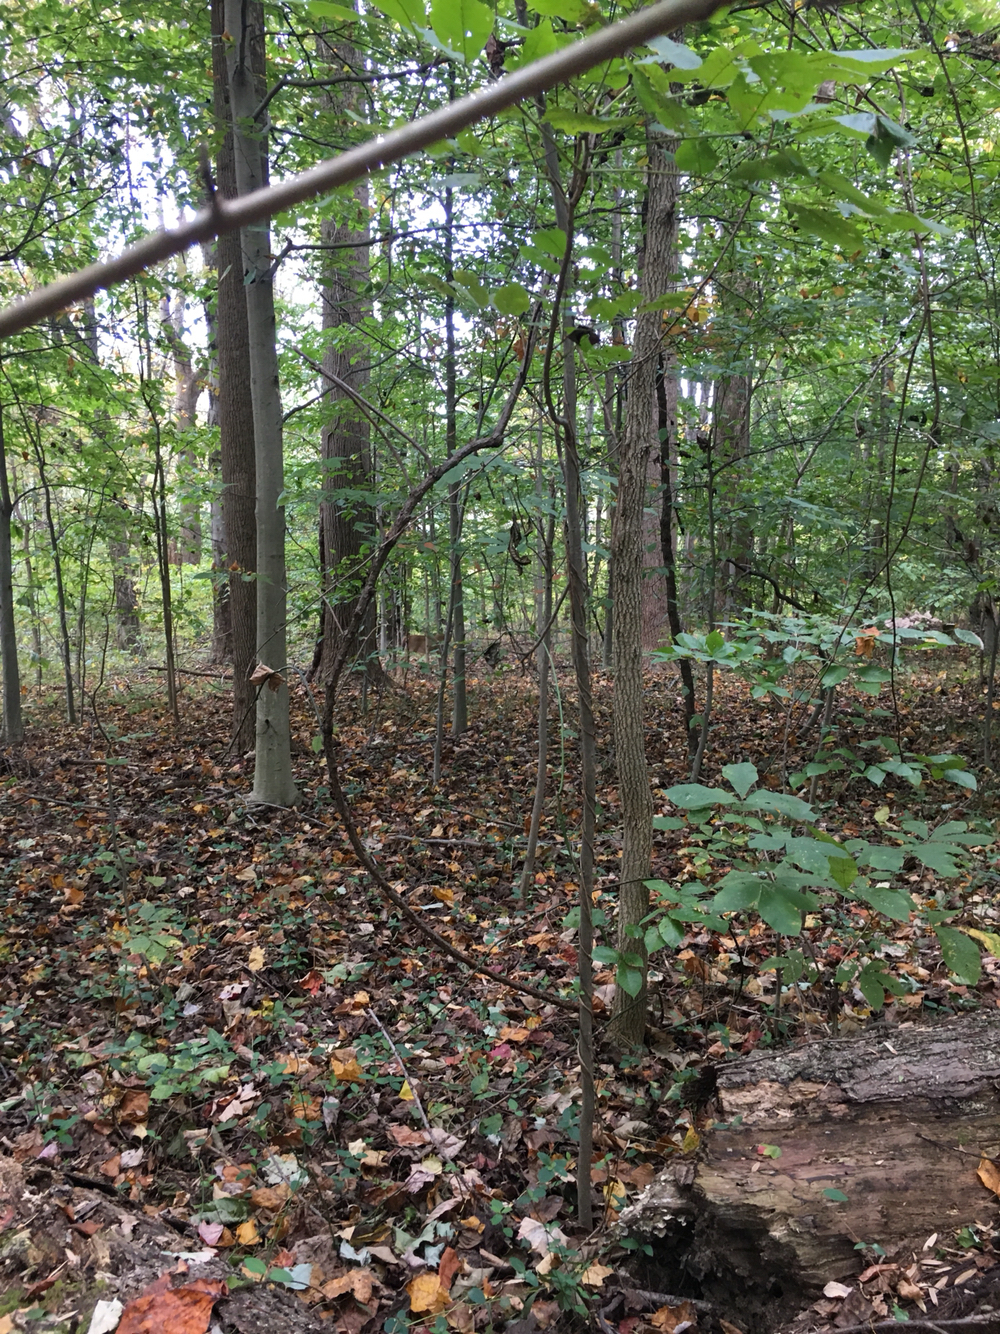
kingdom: Animalia
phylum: Chordata
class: Mammalia
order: Artiodactyla
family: Cervidae
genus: Odocoileus
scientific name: Odocoileus virginianus
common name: White-tailed deer
